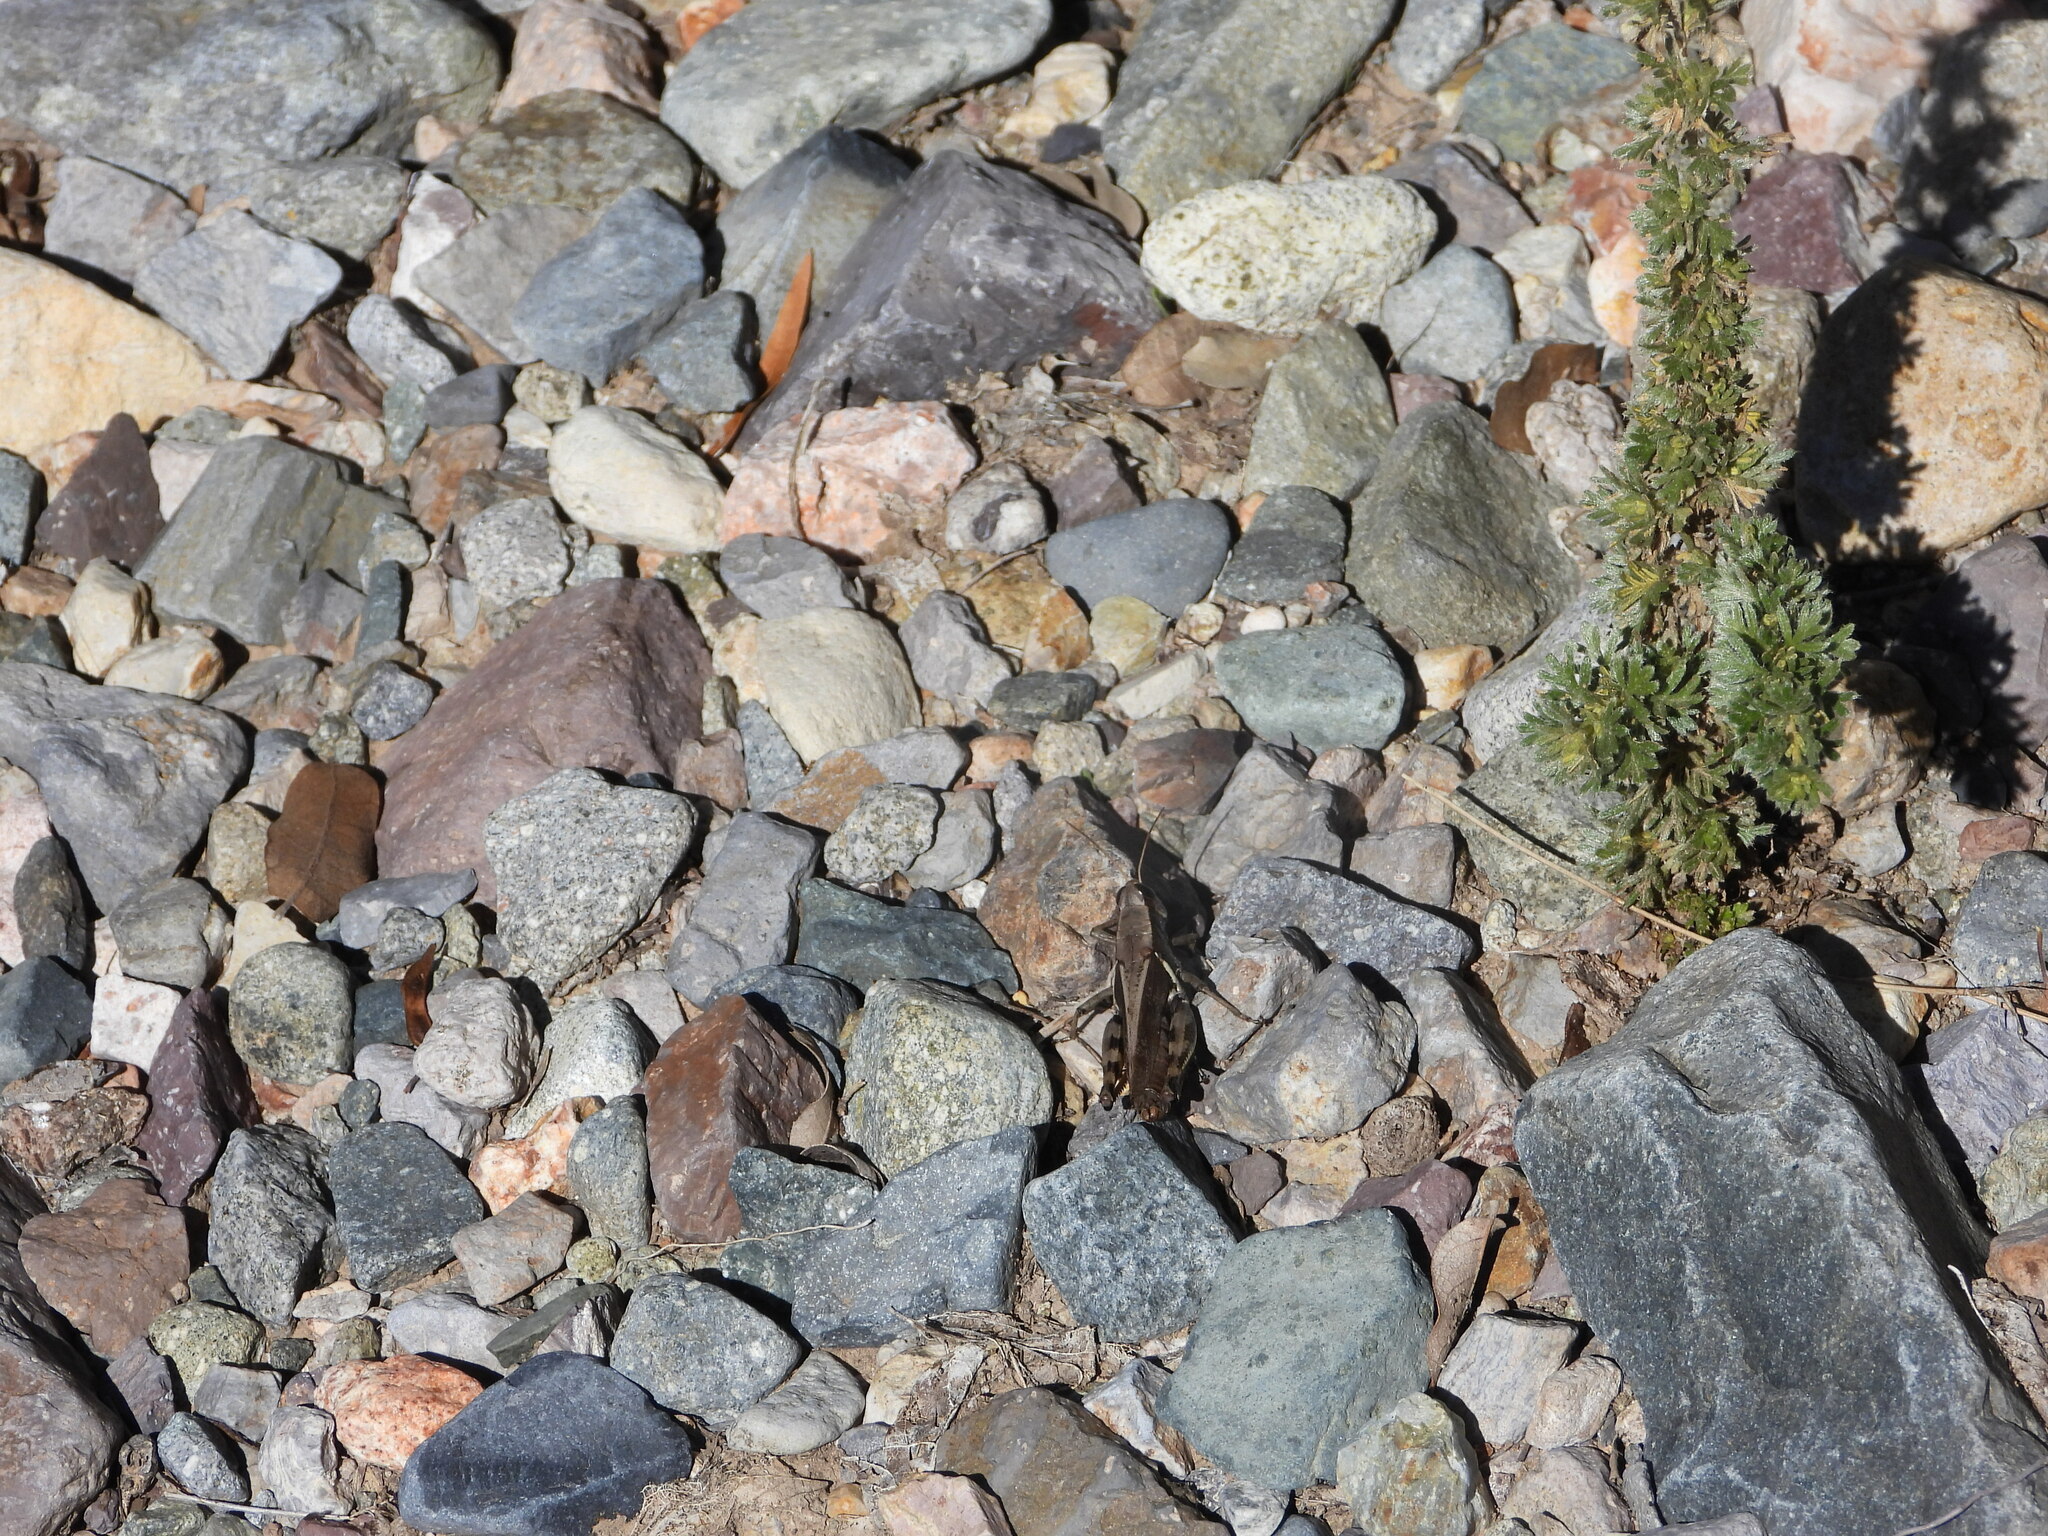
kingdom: Plantae
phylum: Tracheophyta
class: Magnoliopsida
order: Rosales
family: Rosaceae
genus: Fallugia
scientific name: Fallugia paradoxa
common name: Apache-plume
